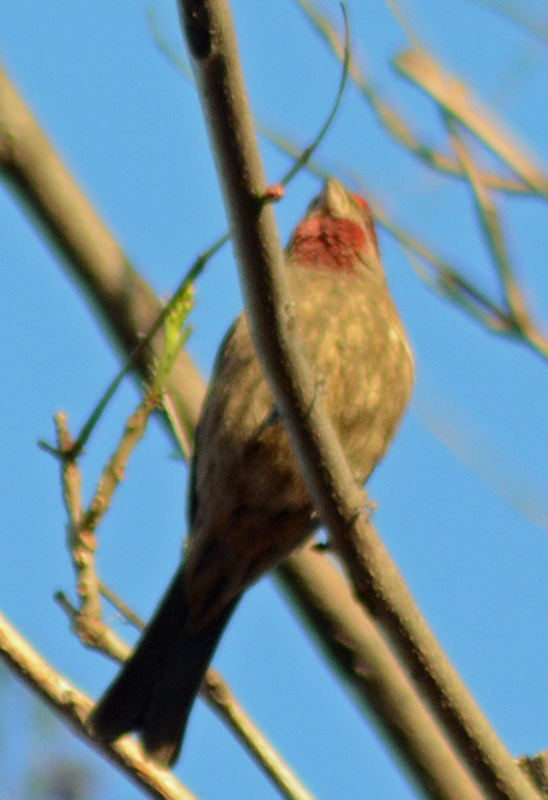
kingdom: Animalia
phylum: Chordata
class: Aves
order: Passeriformes
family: Fringillidae
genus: Haemorhous
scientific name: Haemorhous mexicanus
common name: House finch
